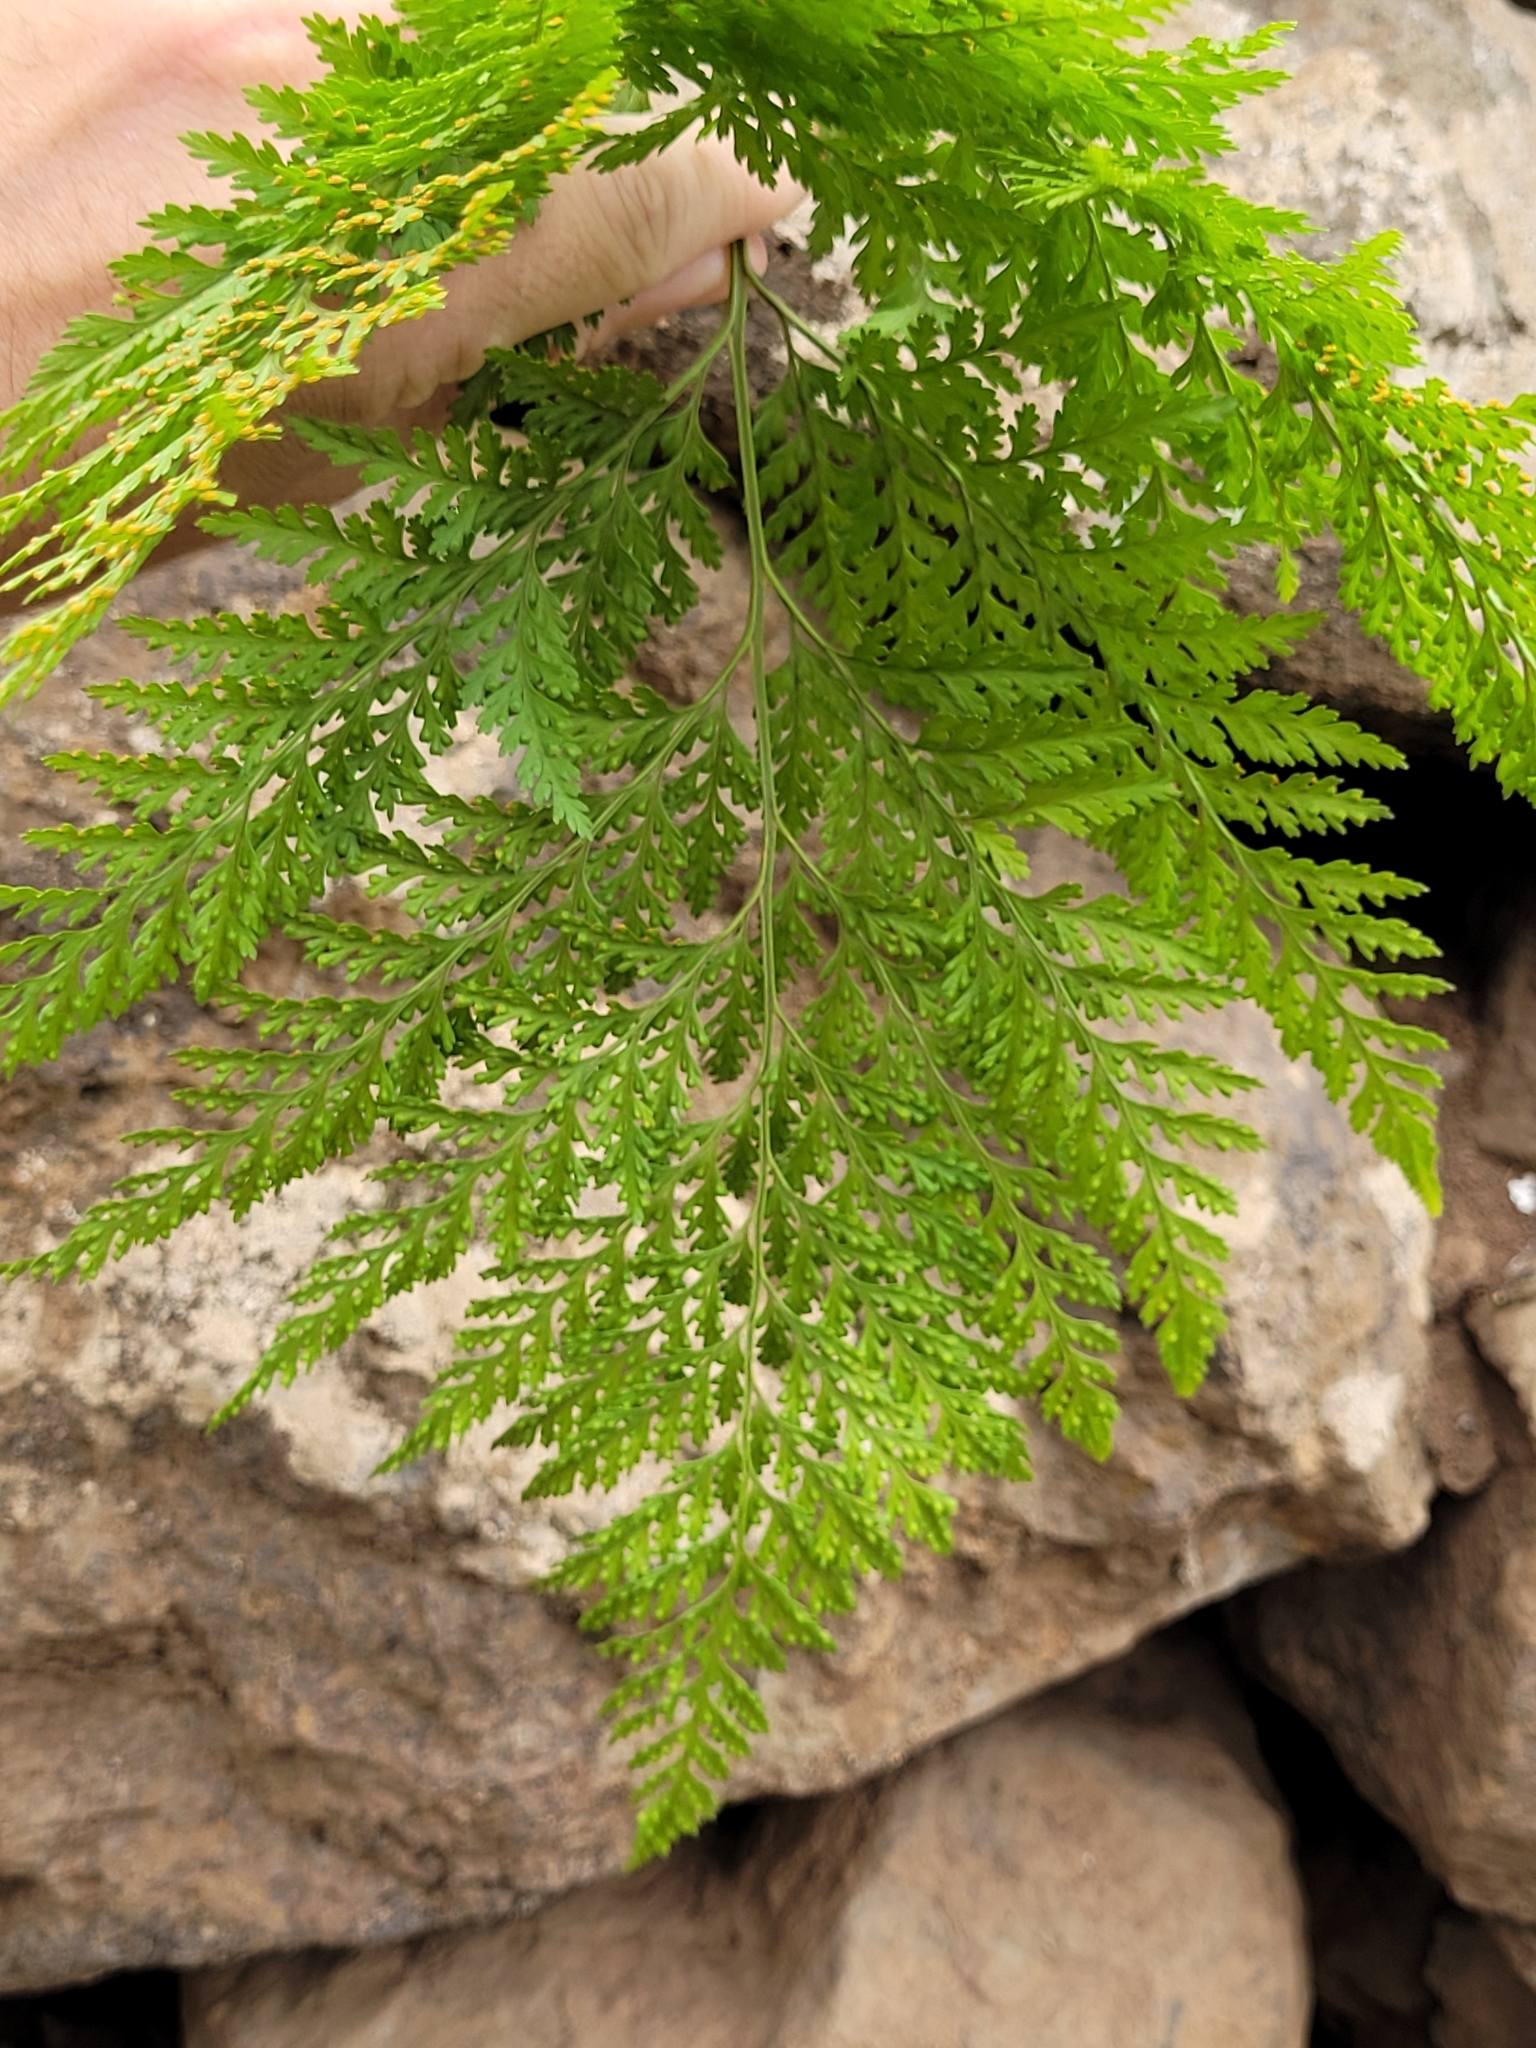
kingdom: Plantae
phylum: Tracheophyta
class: Polypodiopsida
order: Polypodiales
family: Davalliaceae
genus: Davallia
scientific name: Davallia canariensis
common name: Hare's-foot fern
